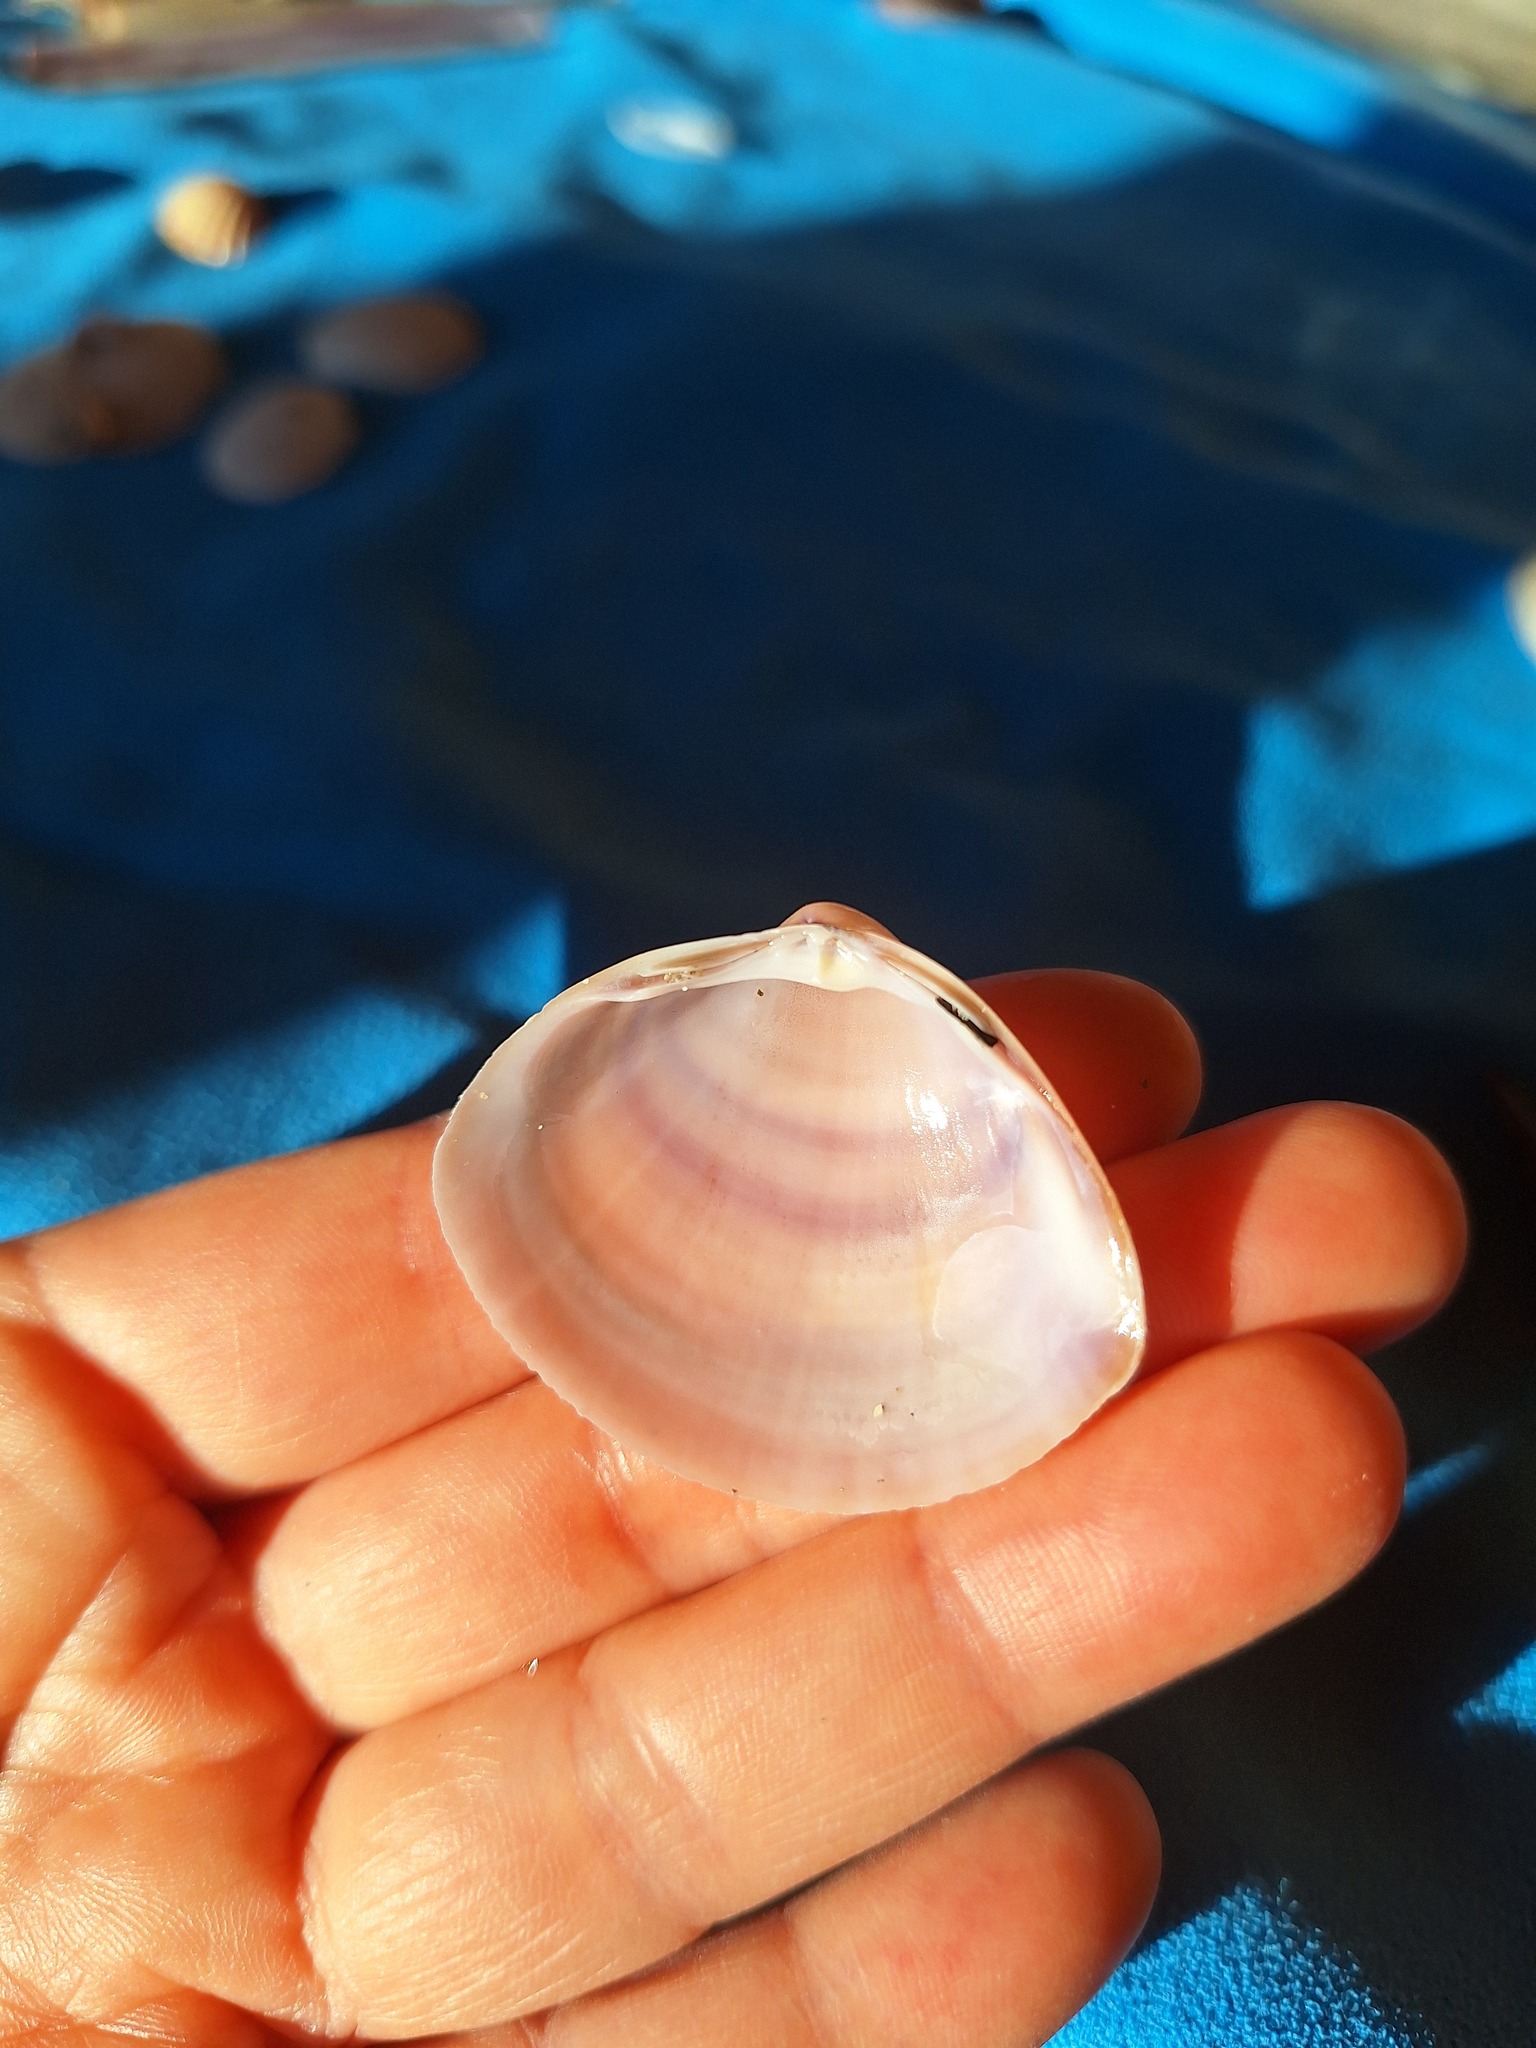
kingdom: Animalia
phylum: Mollusca
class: Bivalvia
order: Venerida
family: Mactridae
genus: Mactra
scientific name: Mactra stultorum
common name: Rayed trough shell
